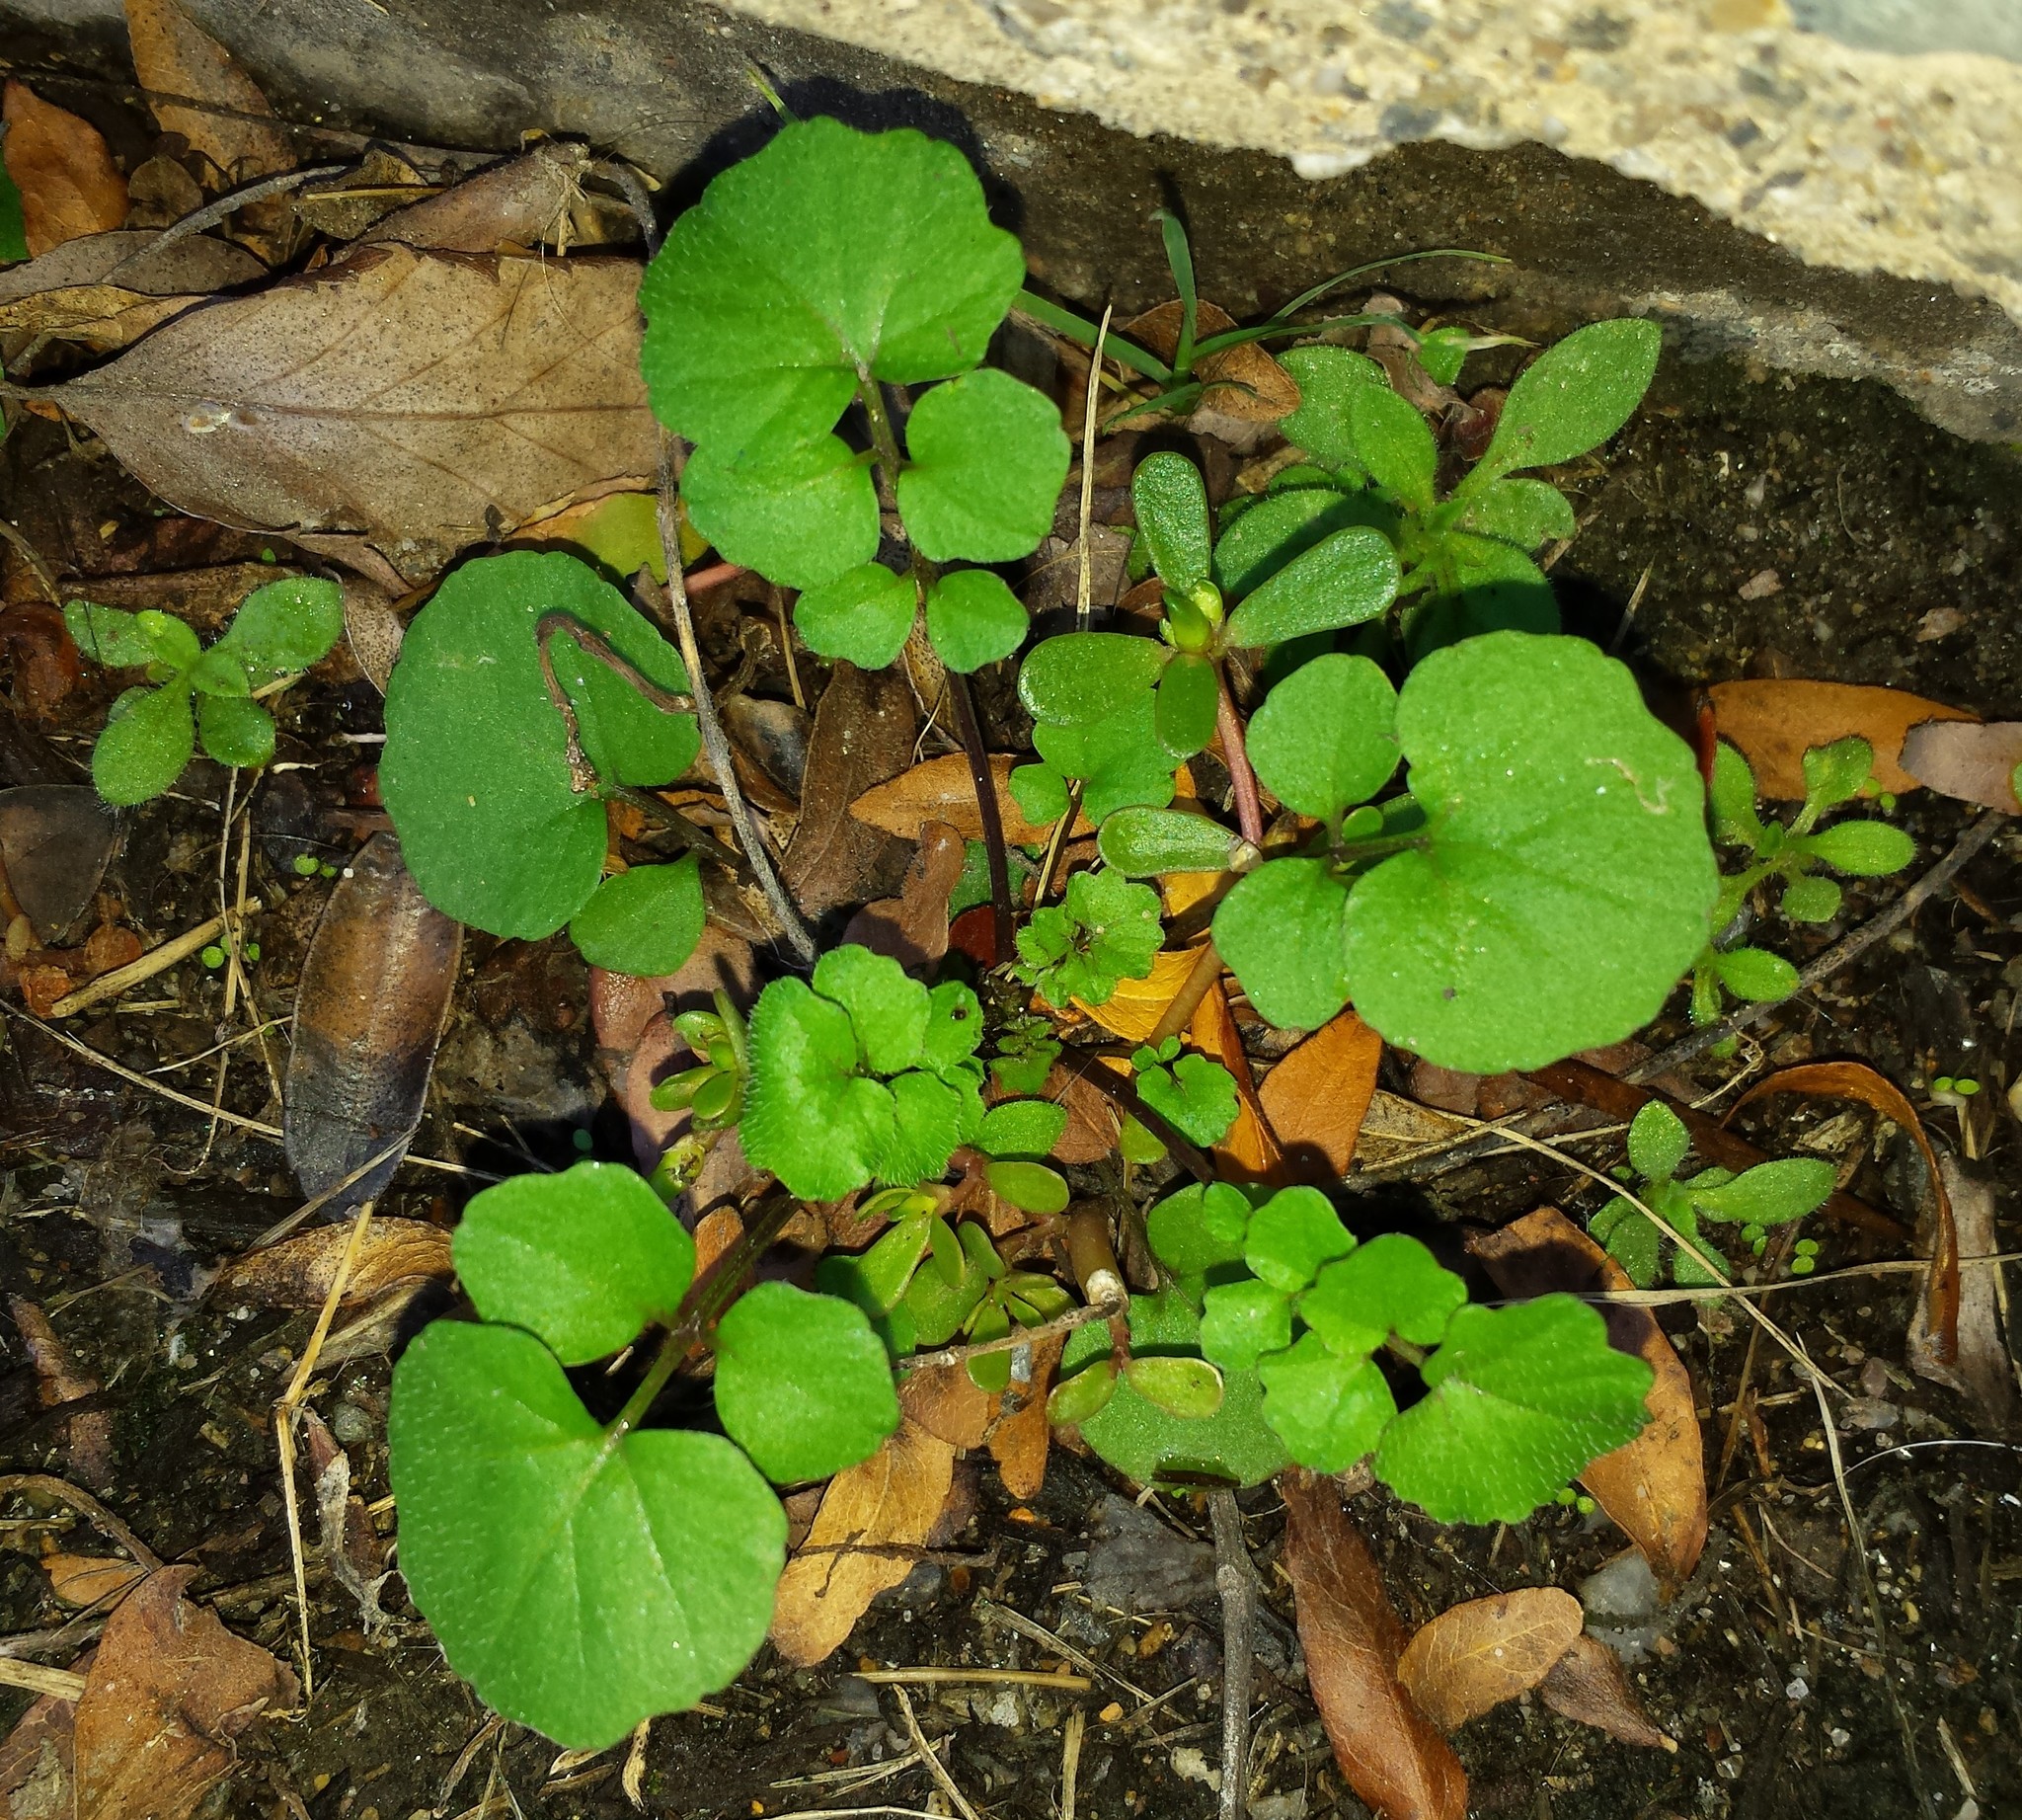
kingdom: Plantae
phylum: Tracheophyta
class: Magnoliopsida
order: Brassicales
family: Brassicaceae
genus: Cardamine
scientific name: Cardamine hirsuta
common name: Hairy bittercress
